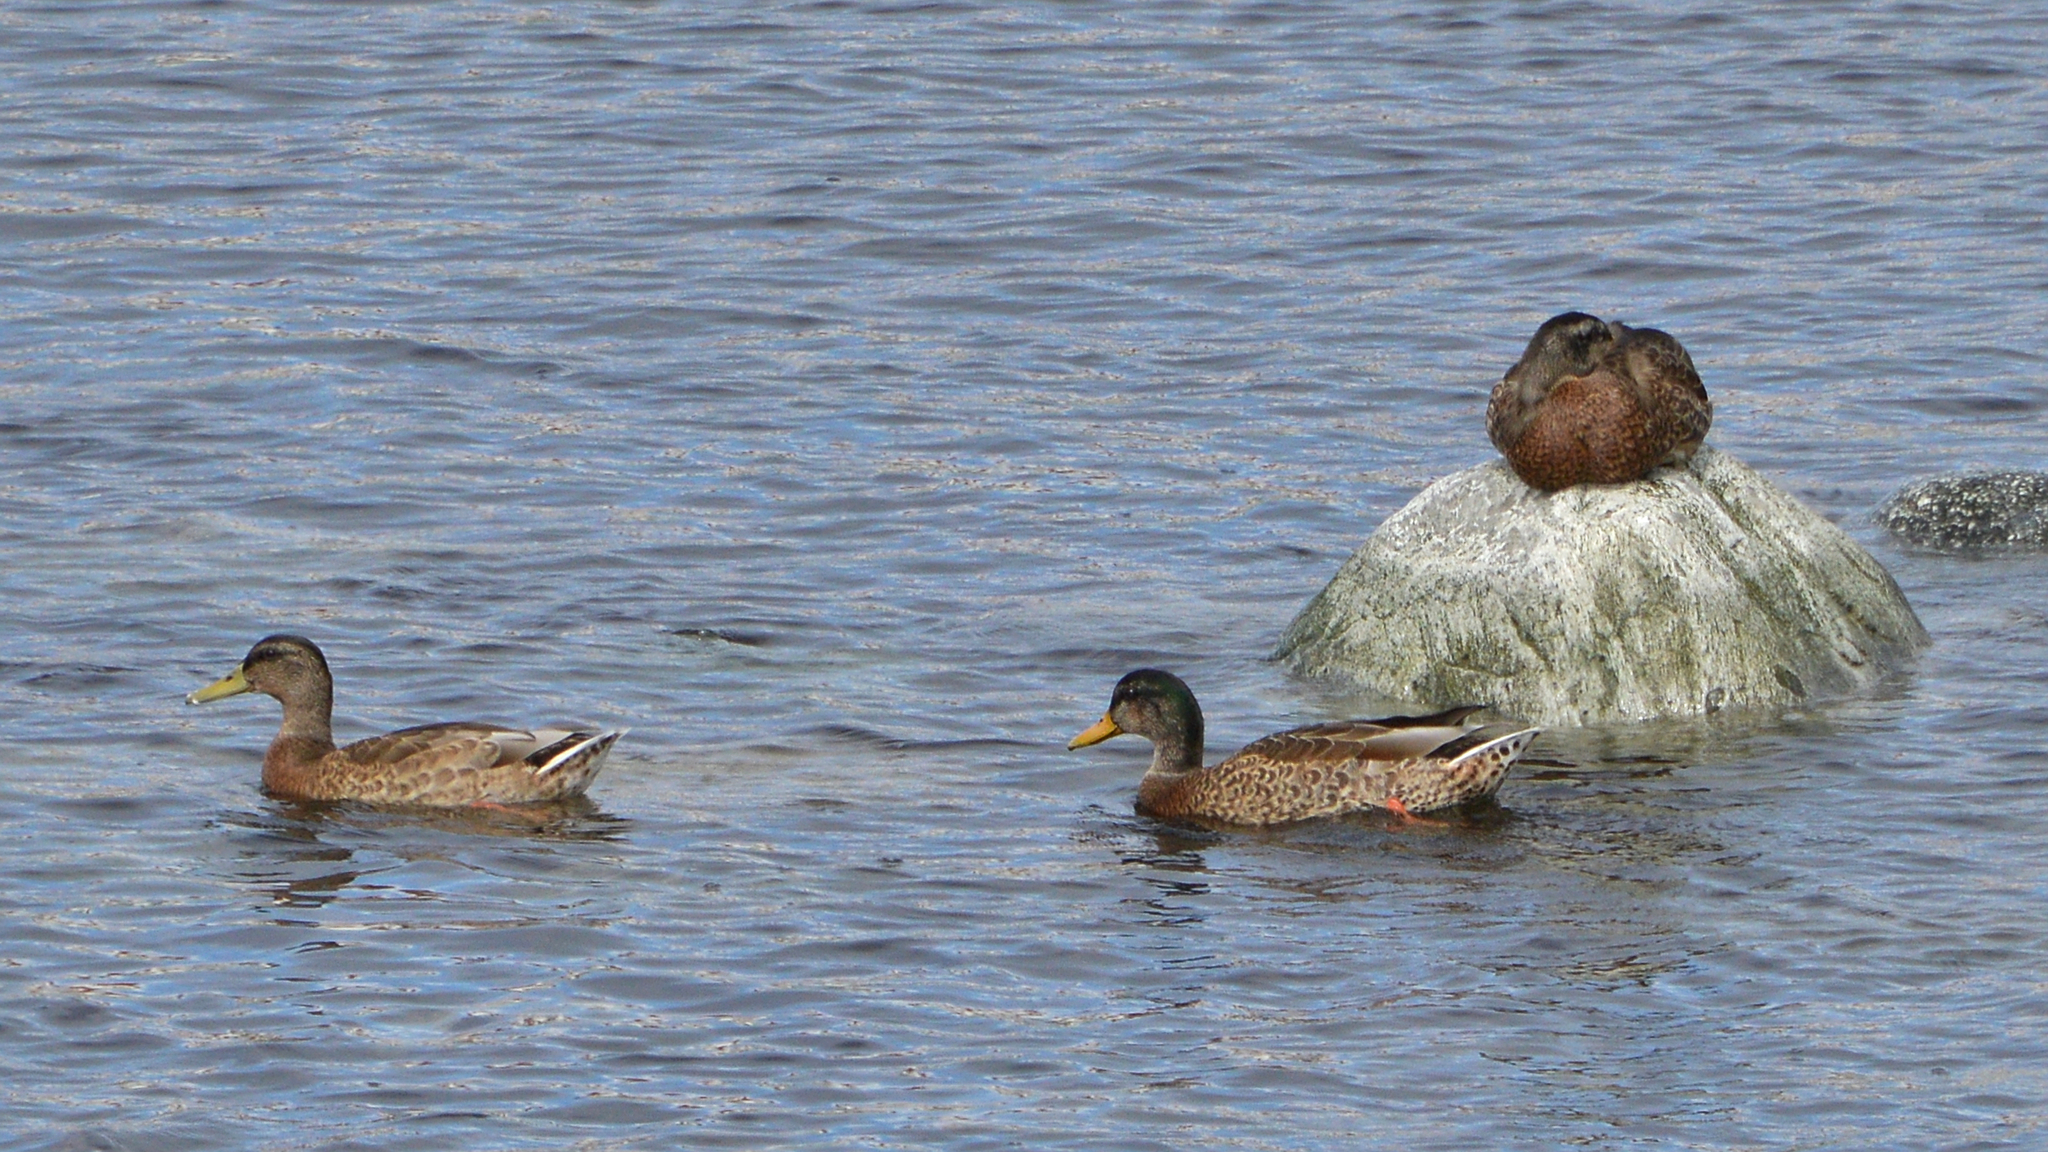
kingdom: Animalia
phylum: Chordata
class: Aves
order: Anseriformes
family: Anatidae
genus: Anas
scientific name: Anas platyrhynchos
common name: Mallard
